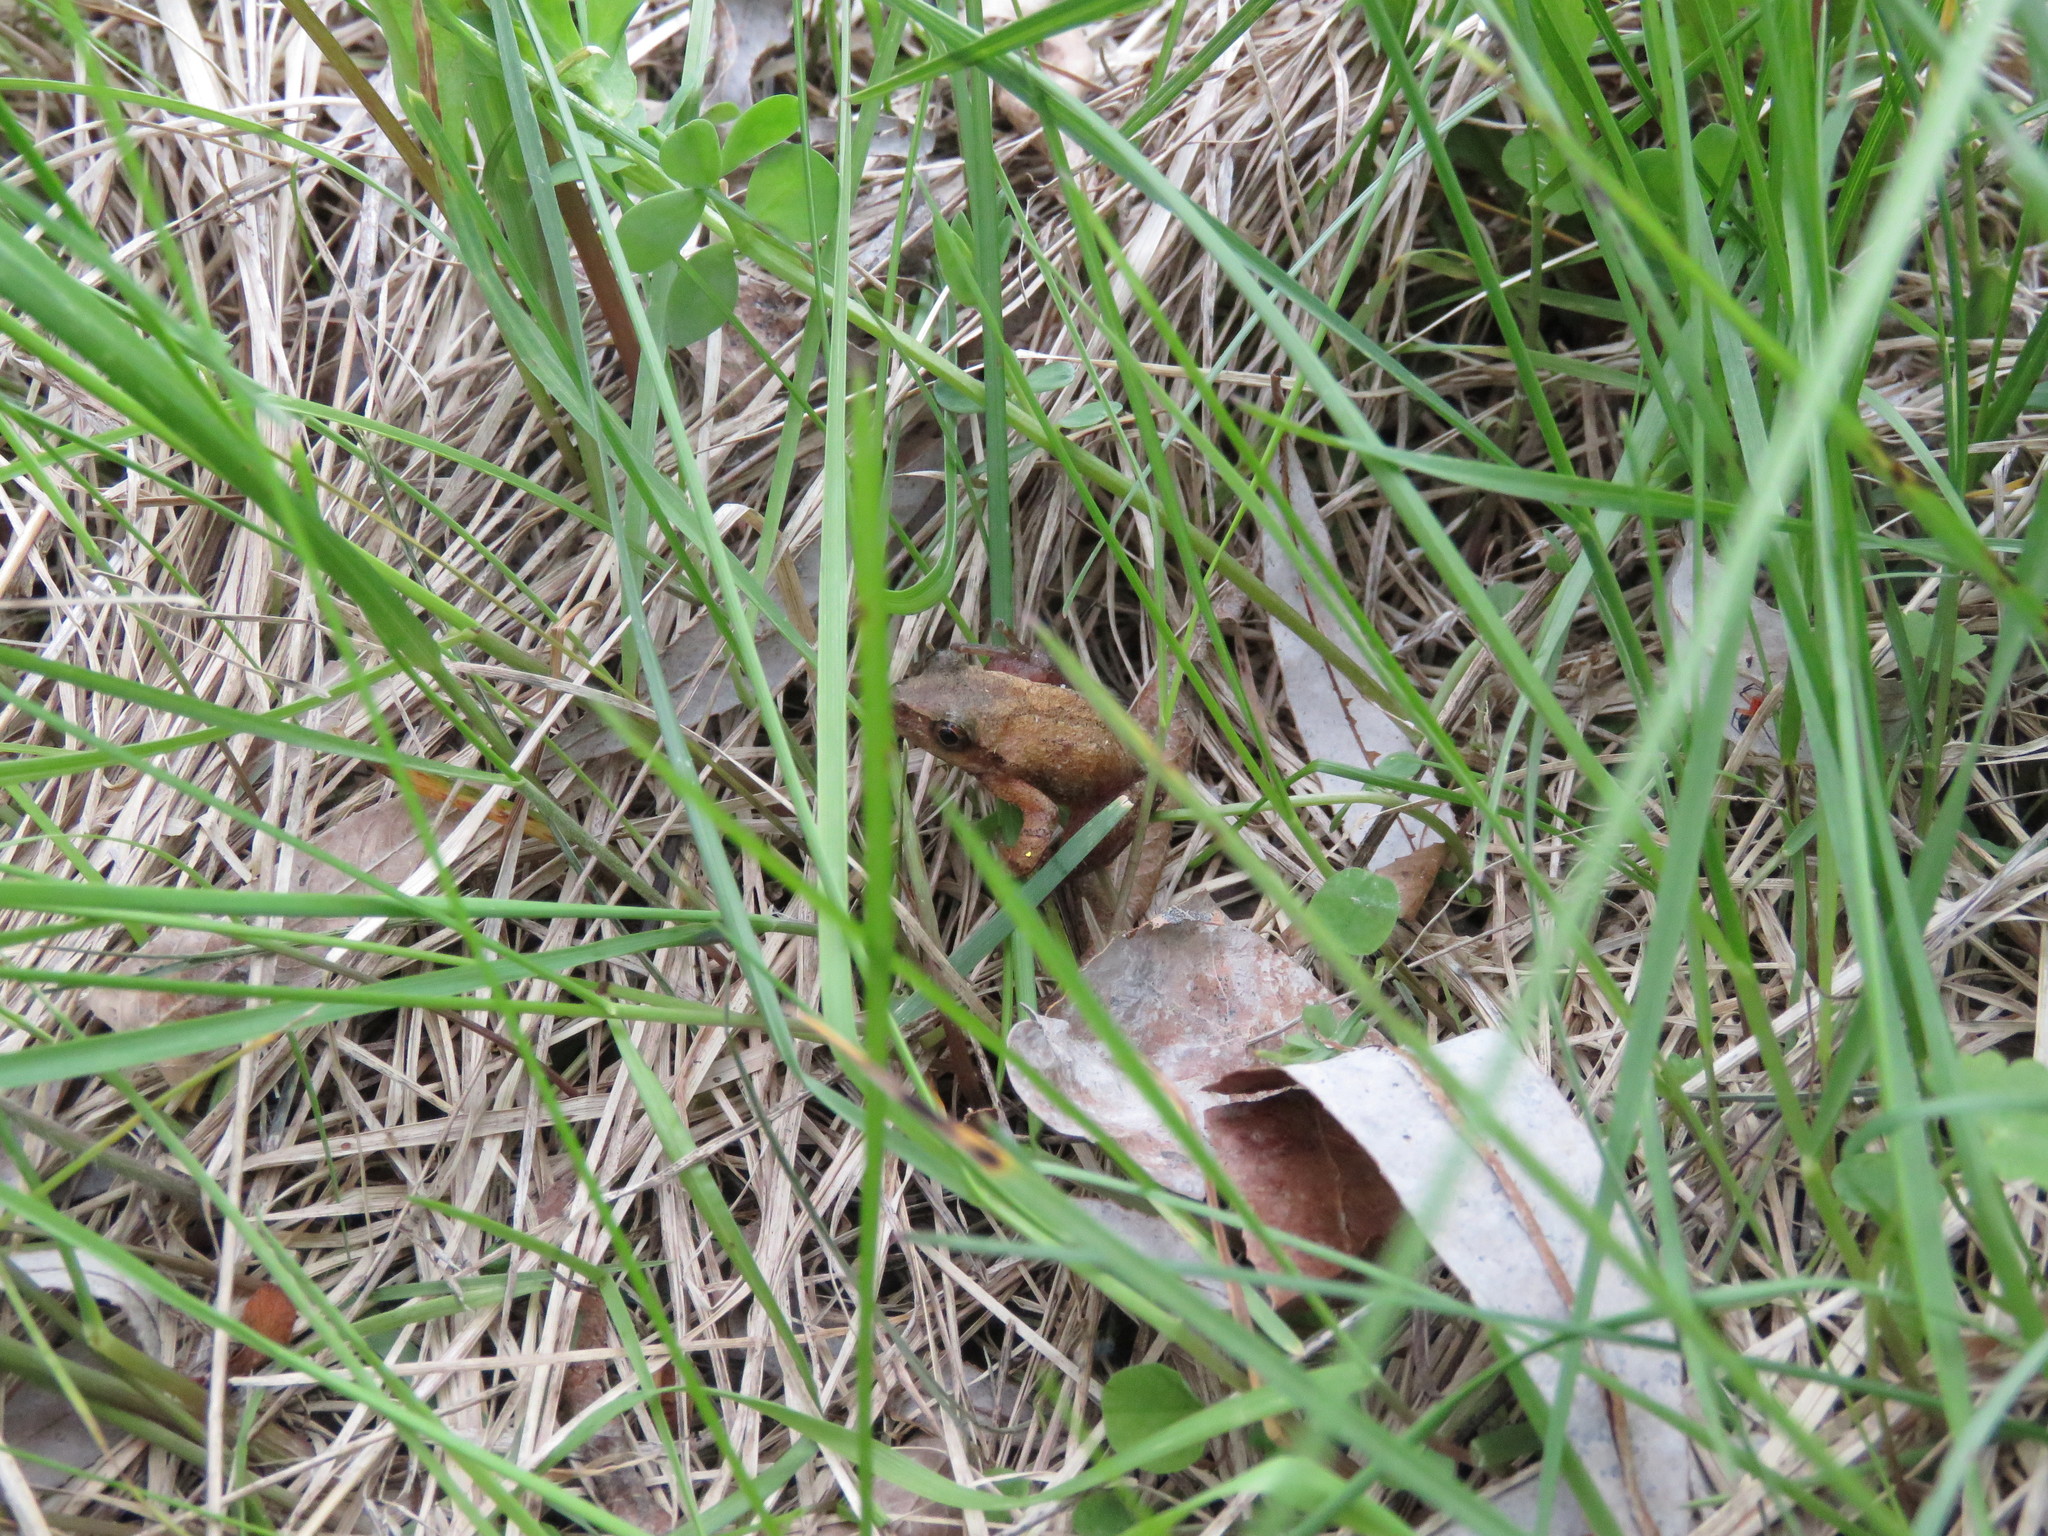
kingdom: Animalia
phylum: Chordata
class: Amphibia
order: Anura
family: Hylidae
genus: Pseudacris
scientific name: Pseudacris crucifer
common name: Spring peeper
